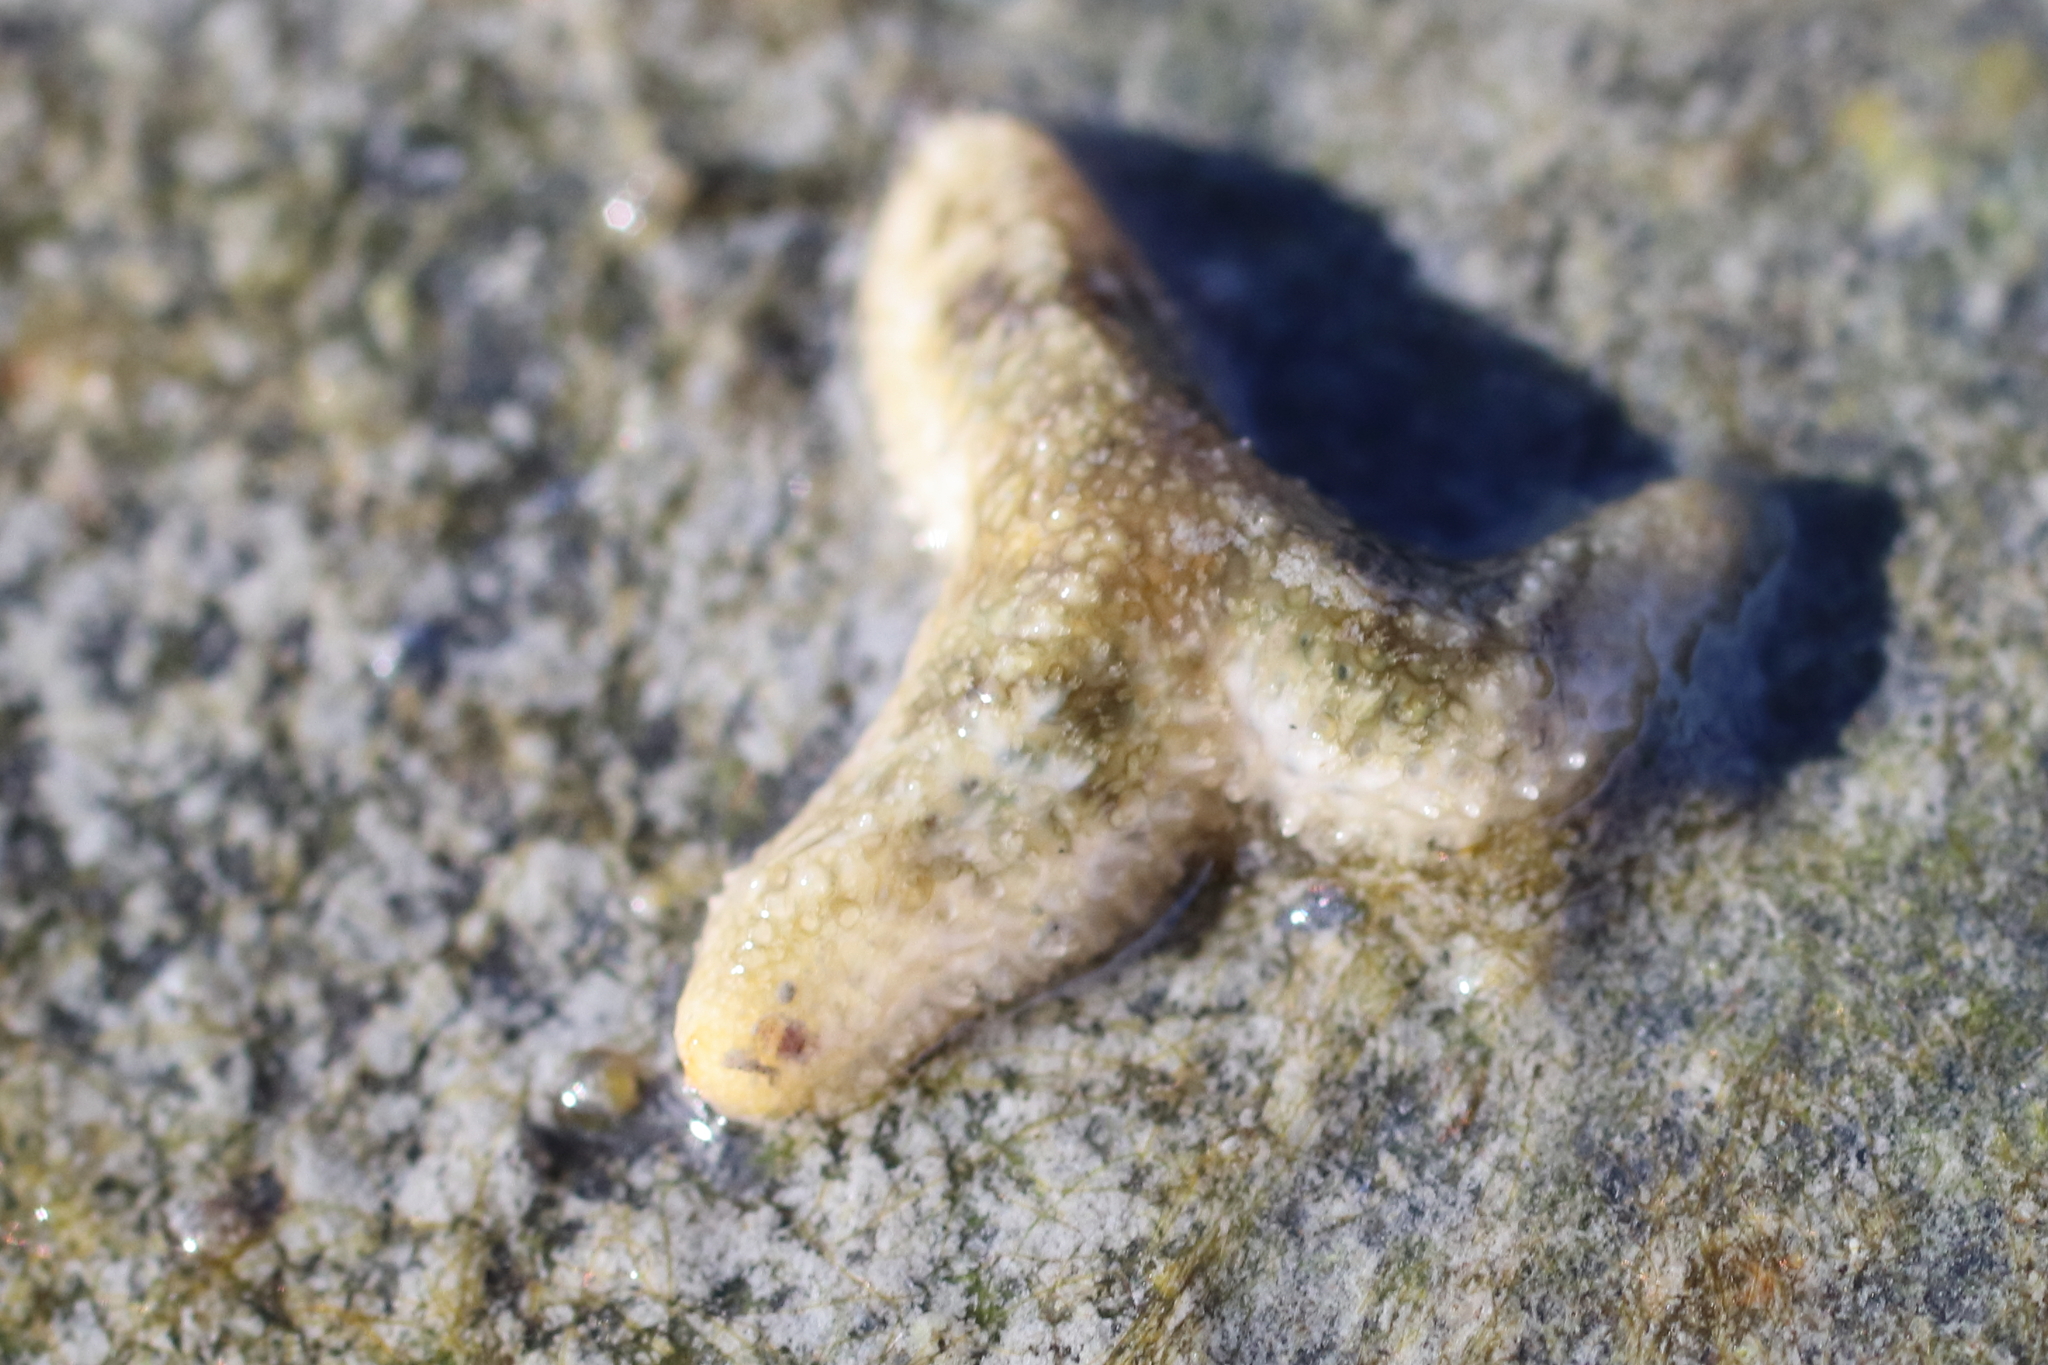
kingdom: Animalia
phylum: Echinodermata
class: Asteroidea
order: Forcipulatida
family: Asteriidae
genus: Evasterias
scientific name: Evasterias troschelii
